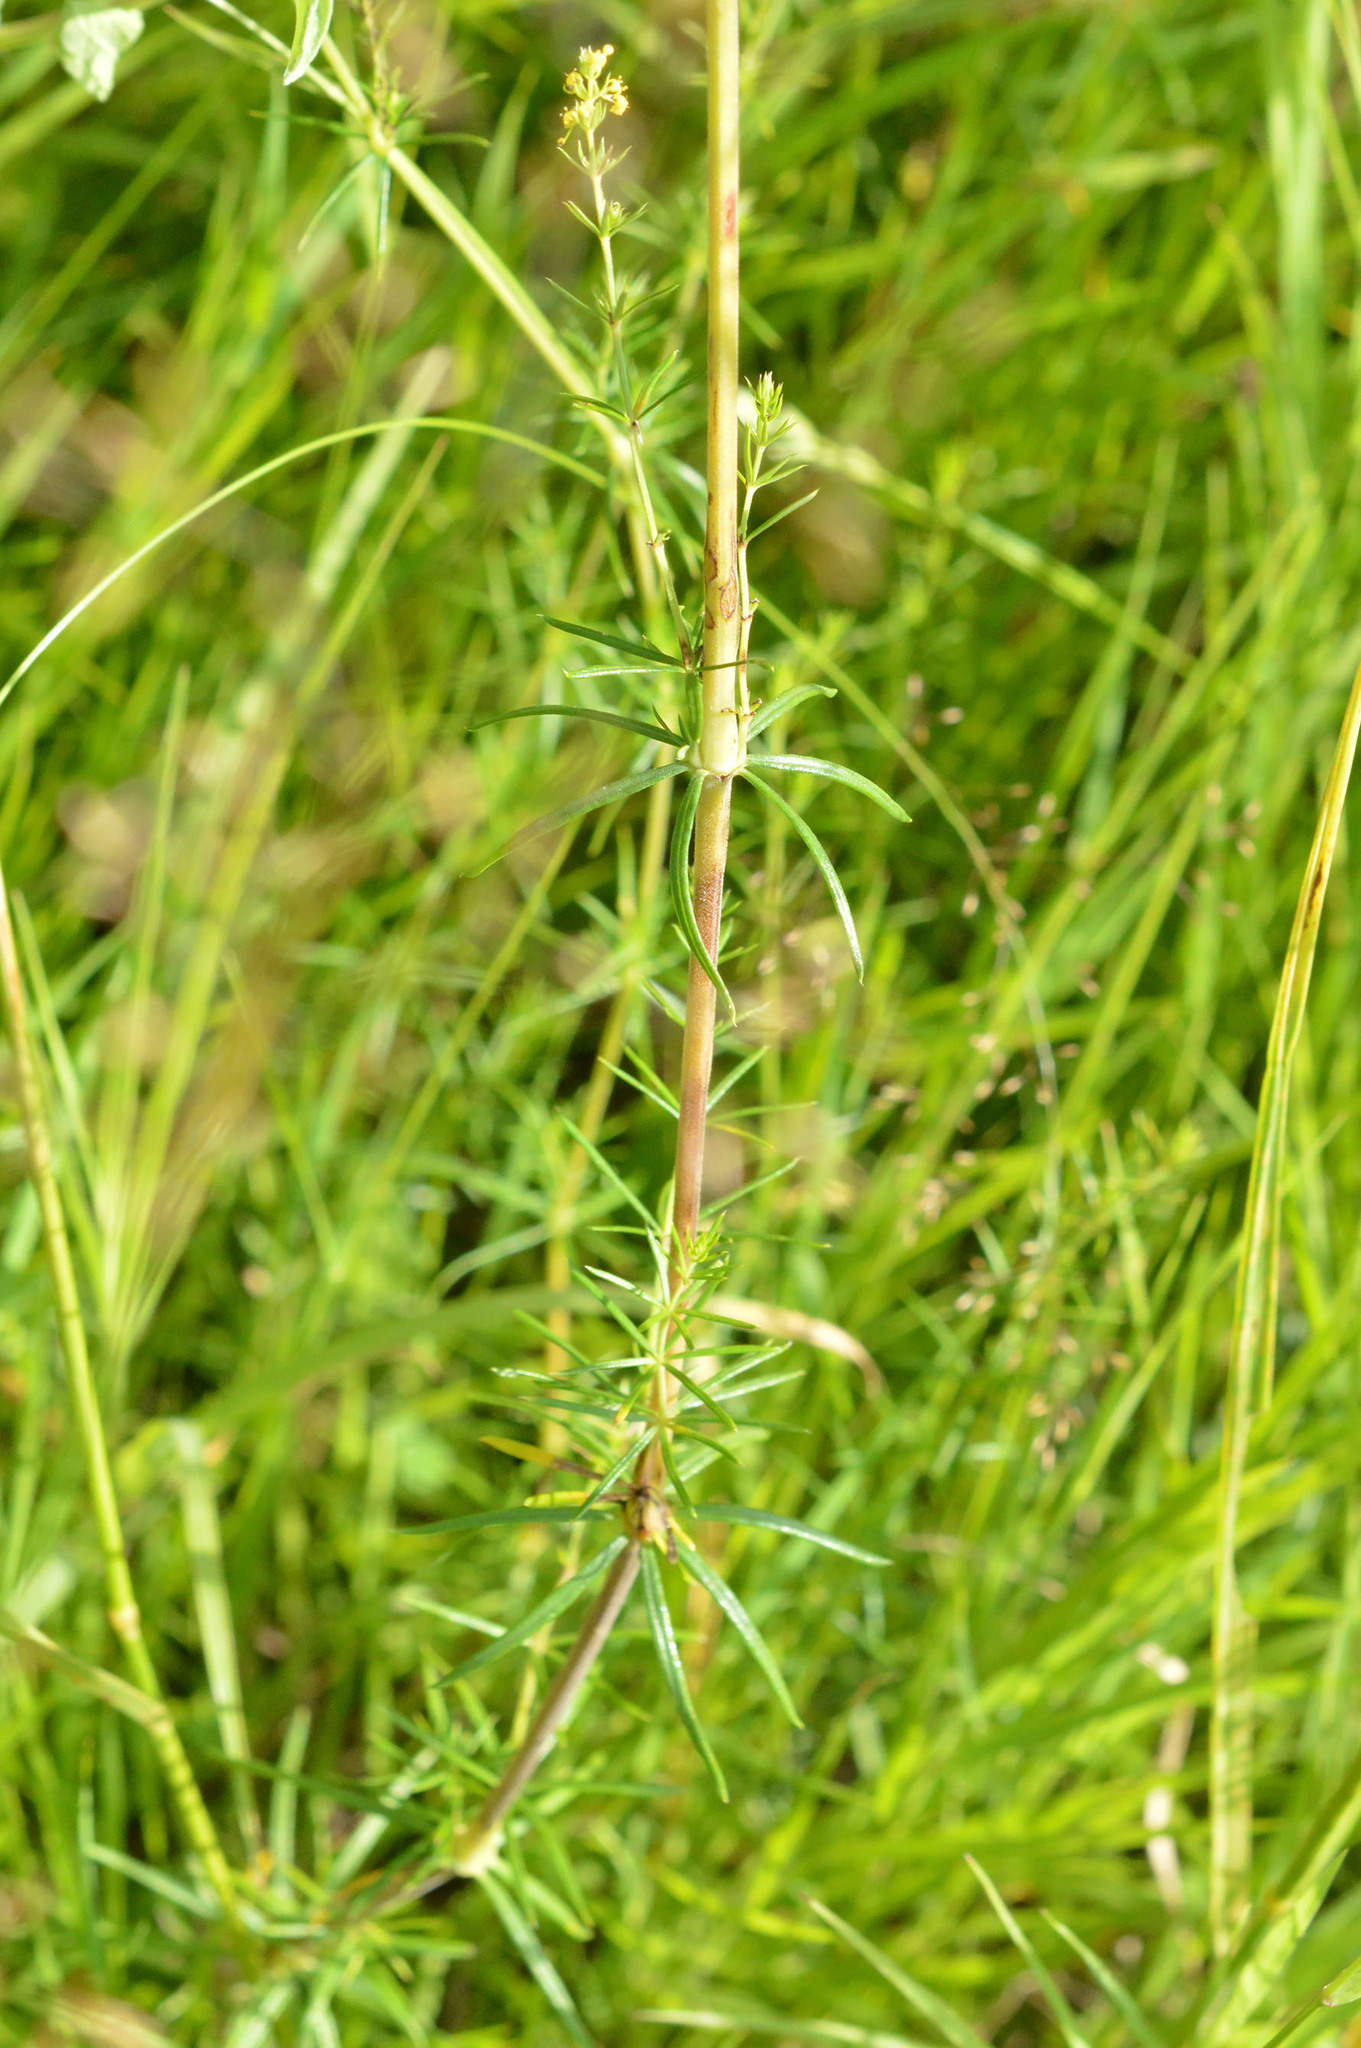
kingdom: Plantae
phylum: Tracheophyta
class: Magnoliopsida
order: Gentianales
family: Rubiaceae
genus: Galium
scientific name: Galium verum
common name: Lady's bedstraw
